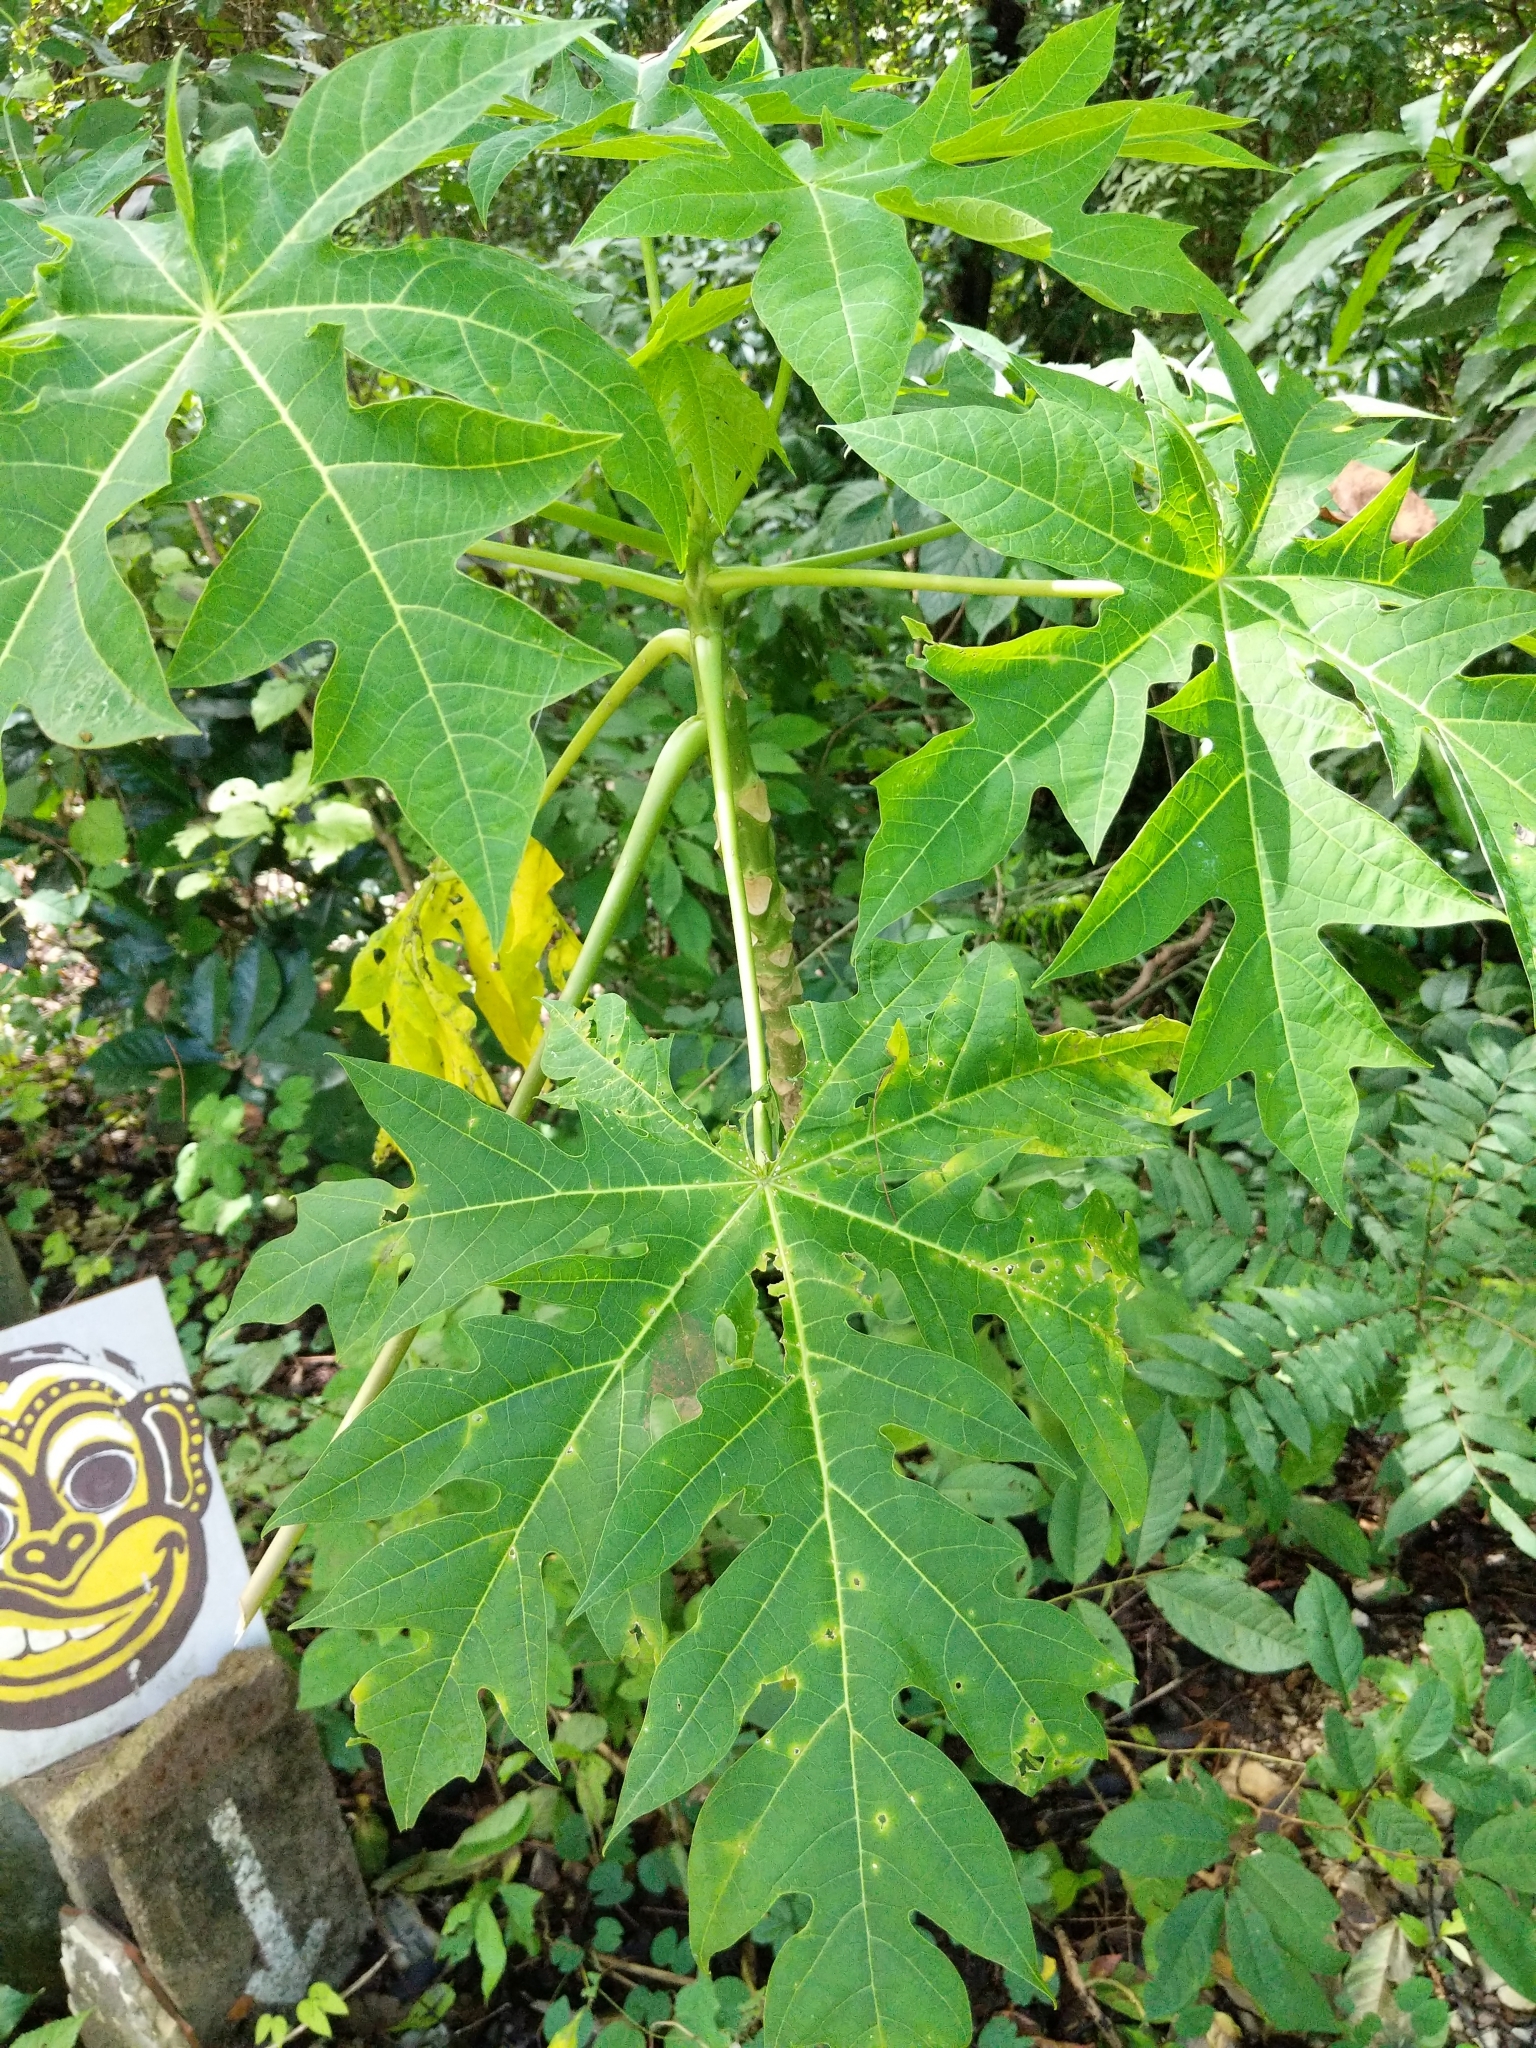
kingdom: Plantae
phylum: Tracheophyta
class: Magnoliopsida
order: Brassicales
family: Caricaceae
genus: Carica
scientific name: Carica papaya
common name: Papaya
